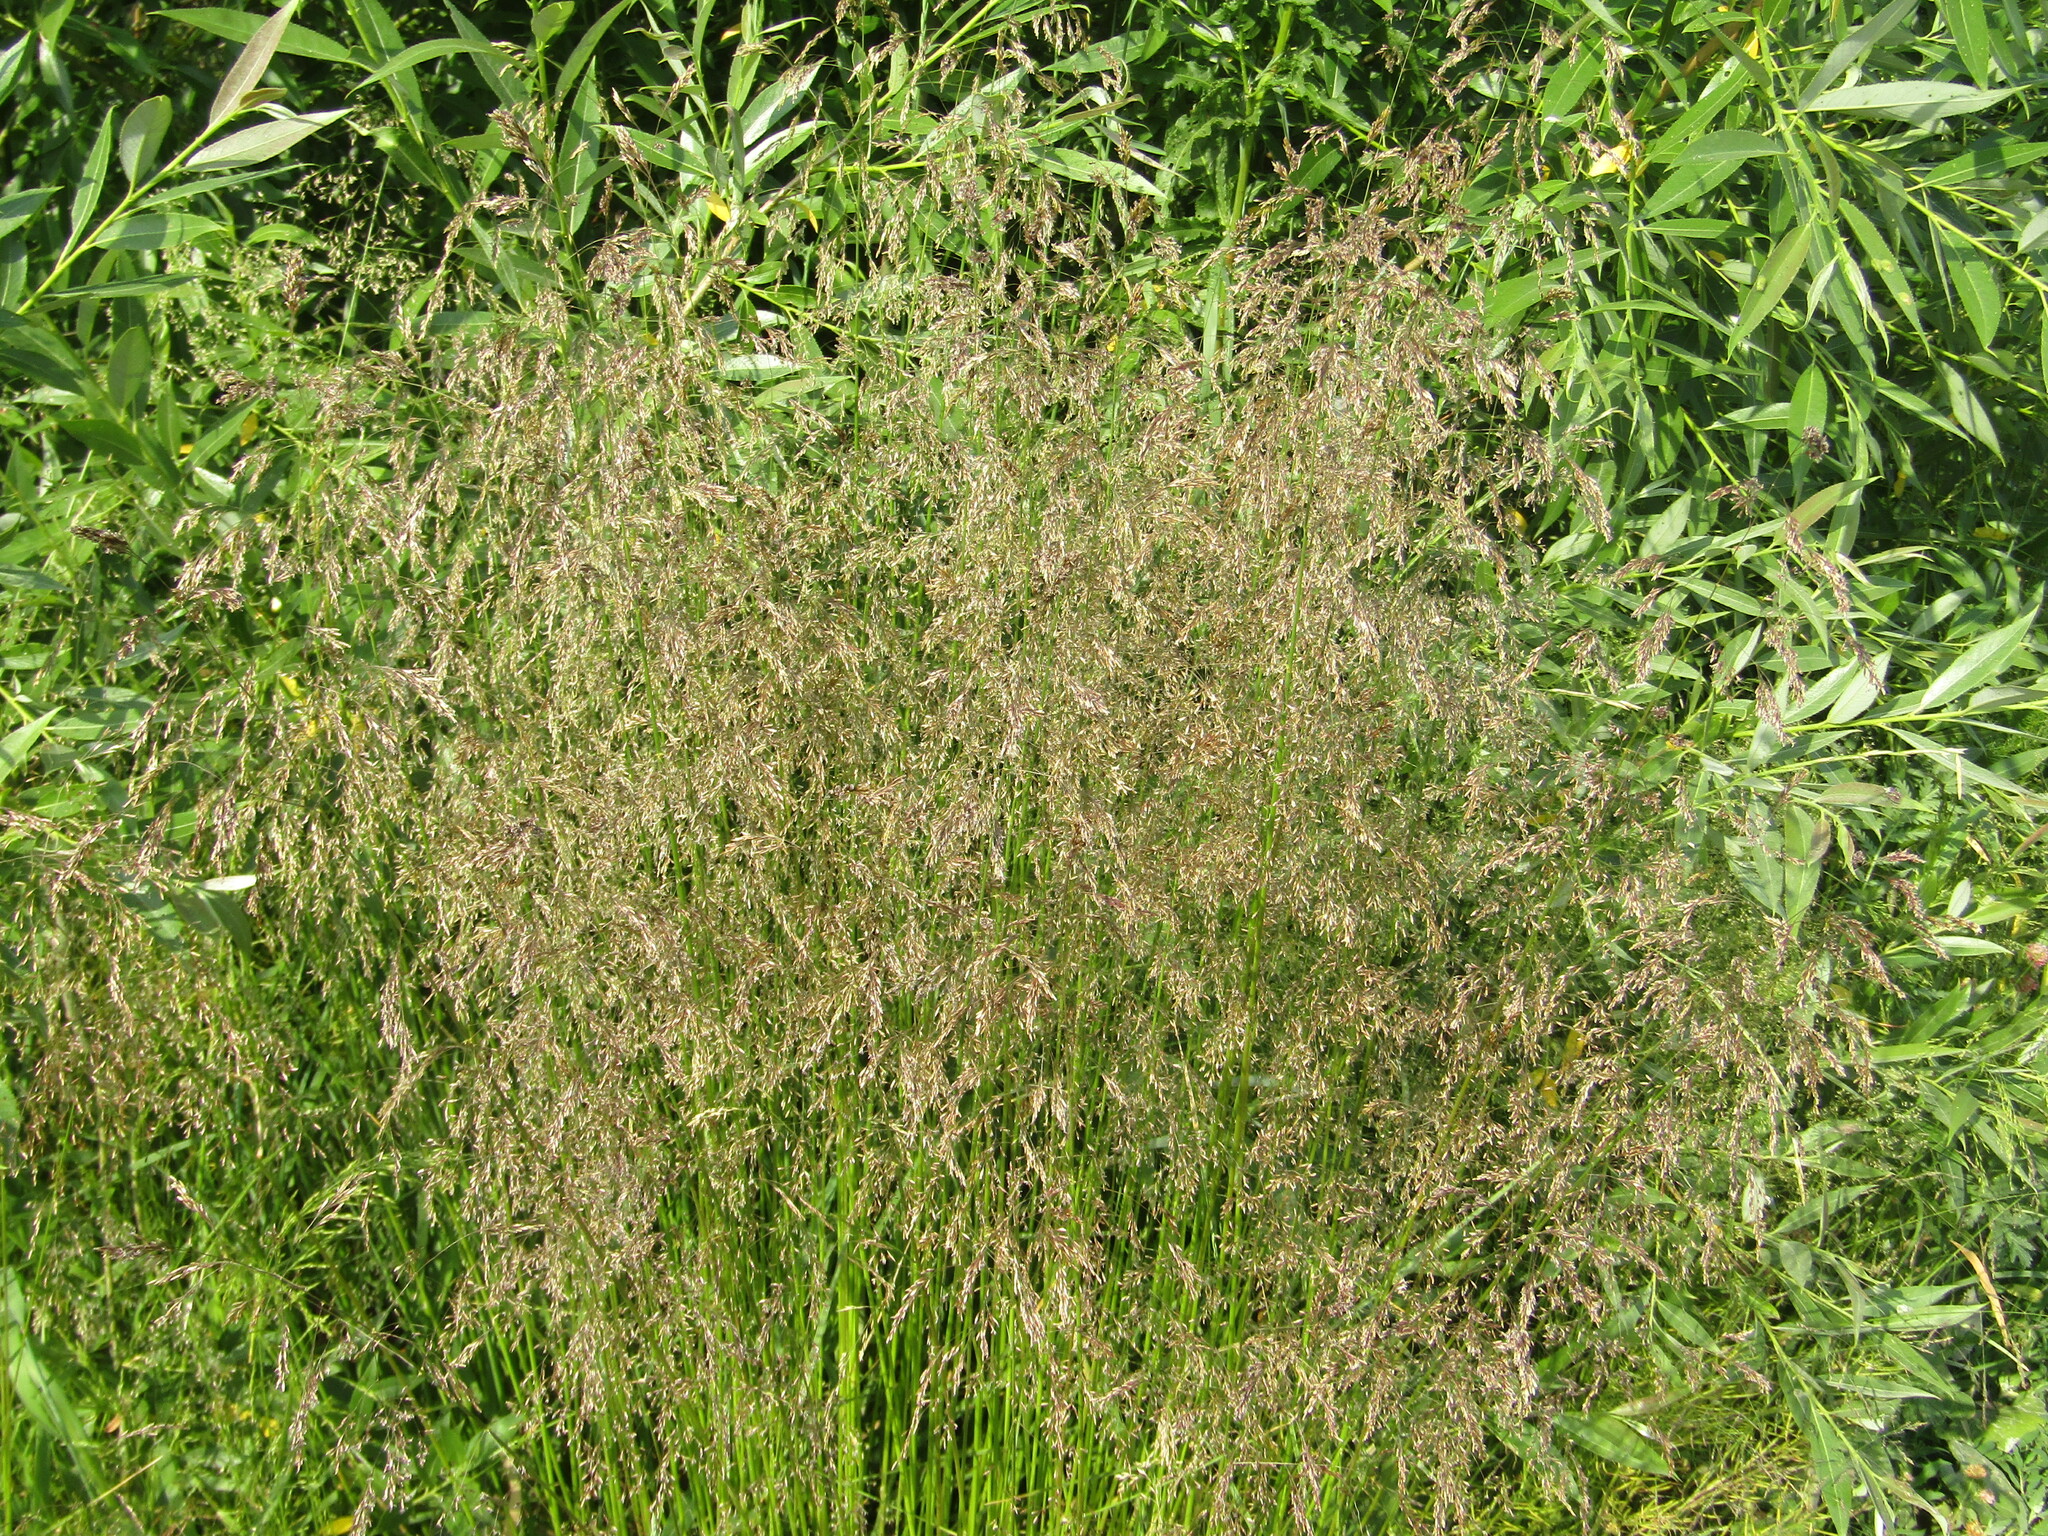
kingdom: Plantae
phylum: Tracheophyta
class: Liliopsida
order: Poales
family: Poaceae
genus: Deschampsia
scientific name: Deschampsia cespitosa
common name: Tufted hair-grass
